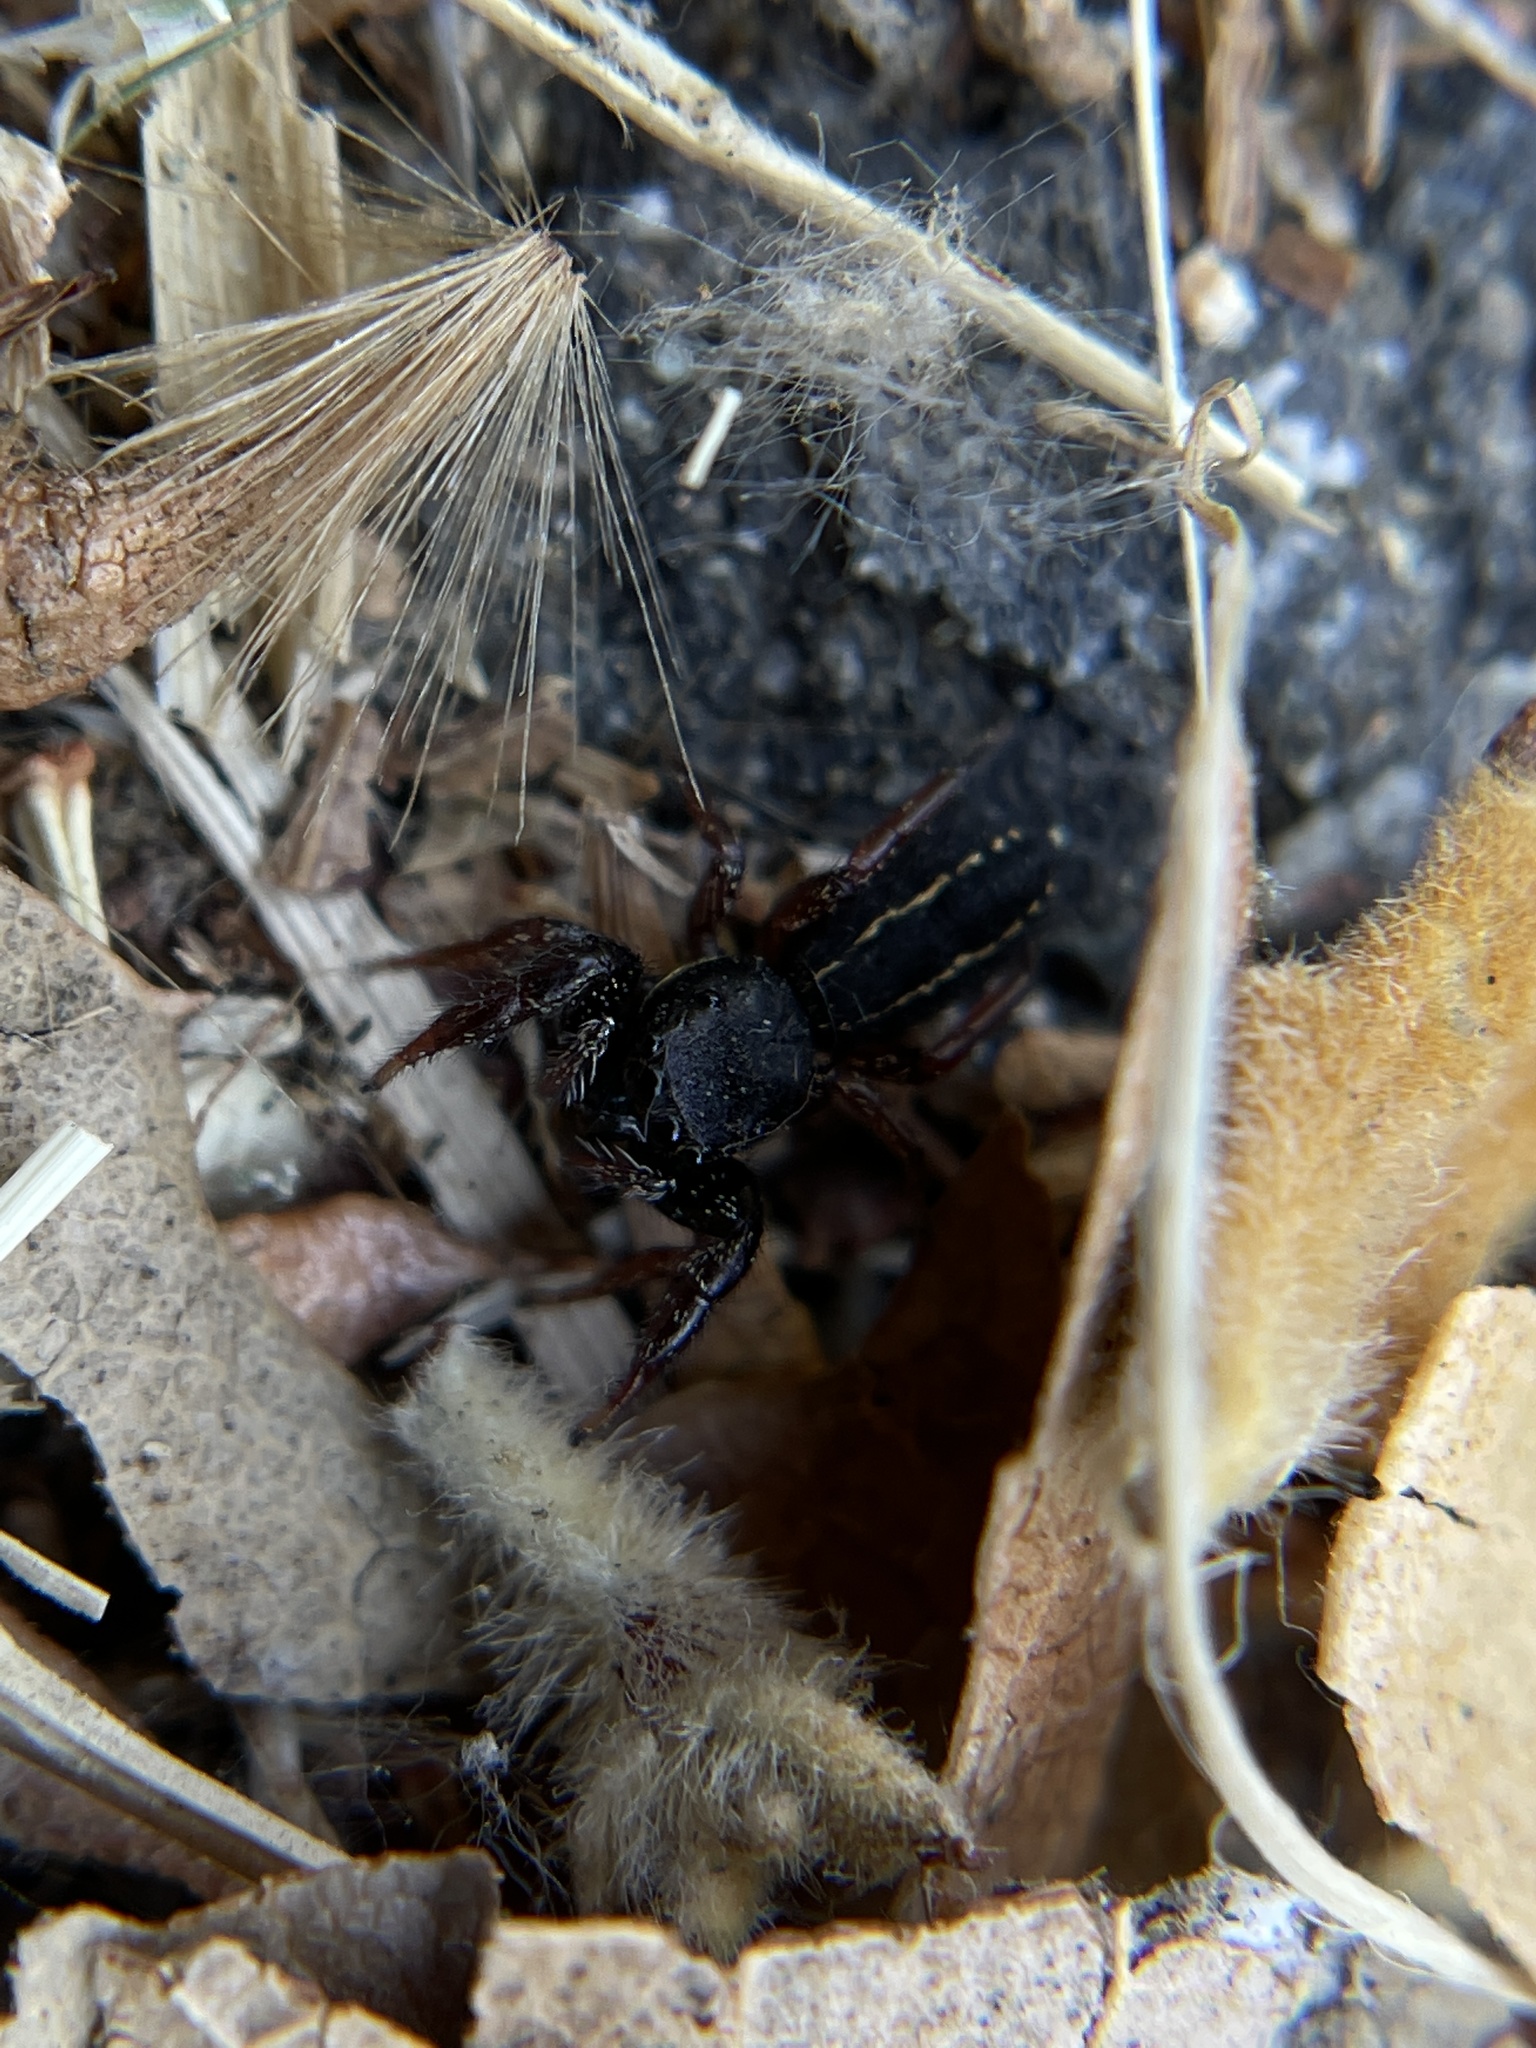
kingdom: Animalia
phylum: Arthropoda
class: Arachnida
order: Araneae
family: Salticidae
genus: Metacyrba
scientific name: Metacyrba taeniola
